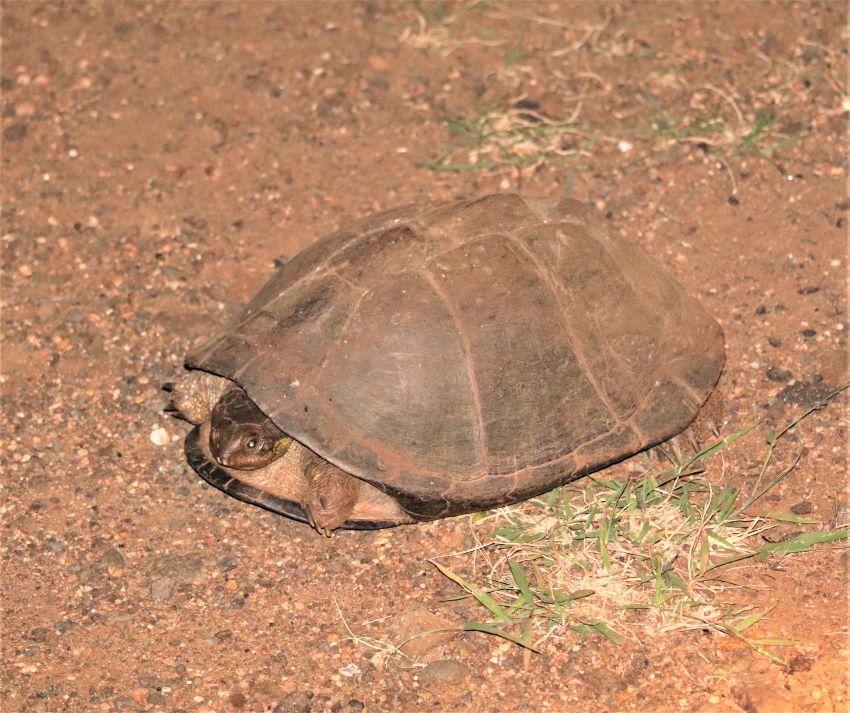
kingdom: Animalia
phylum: Chordata
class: Testudines
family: Pelomedusidae
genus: Pelusios
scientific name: Pelusios sinuatus
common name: Serrated hinged terrapin
